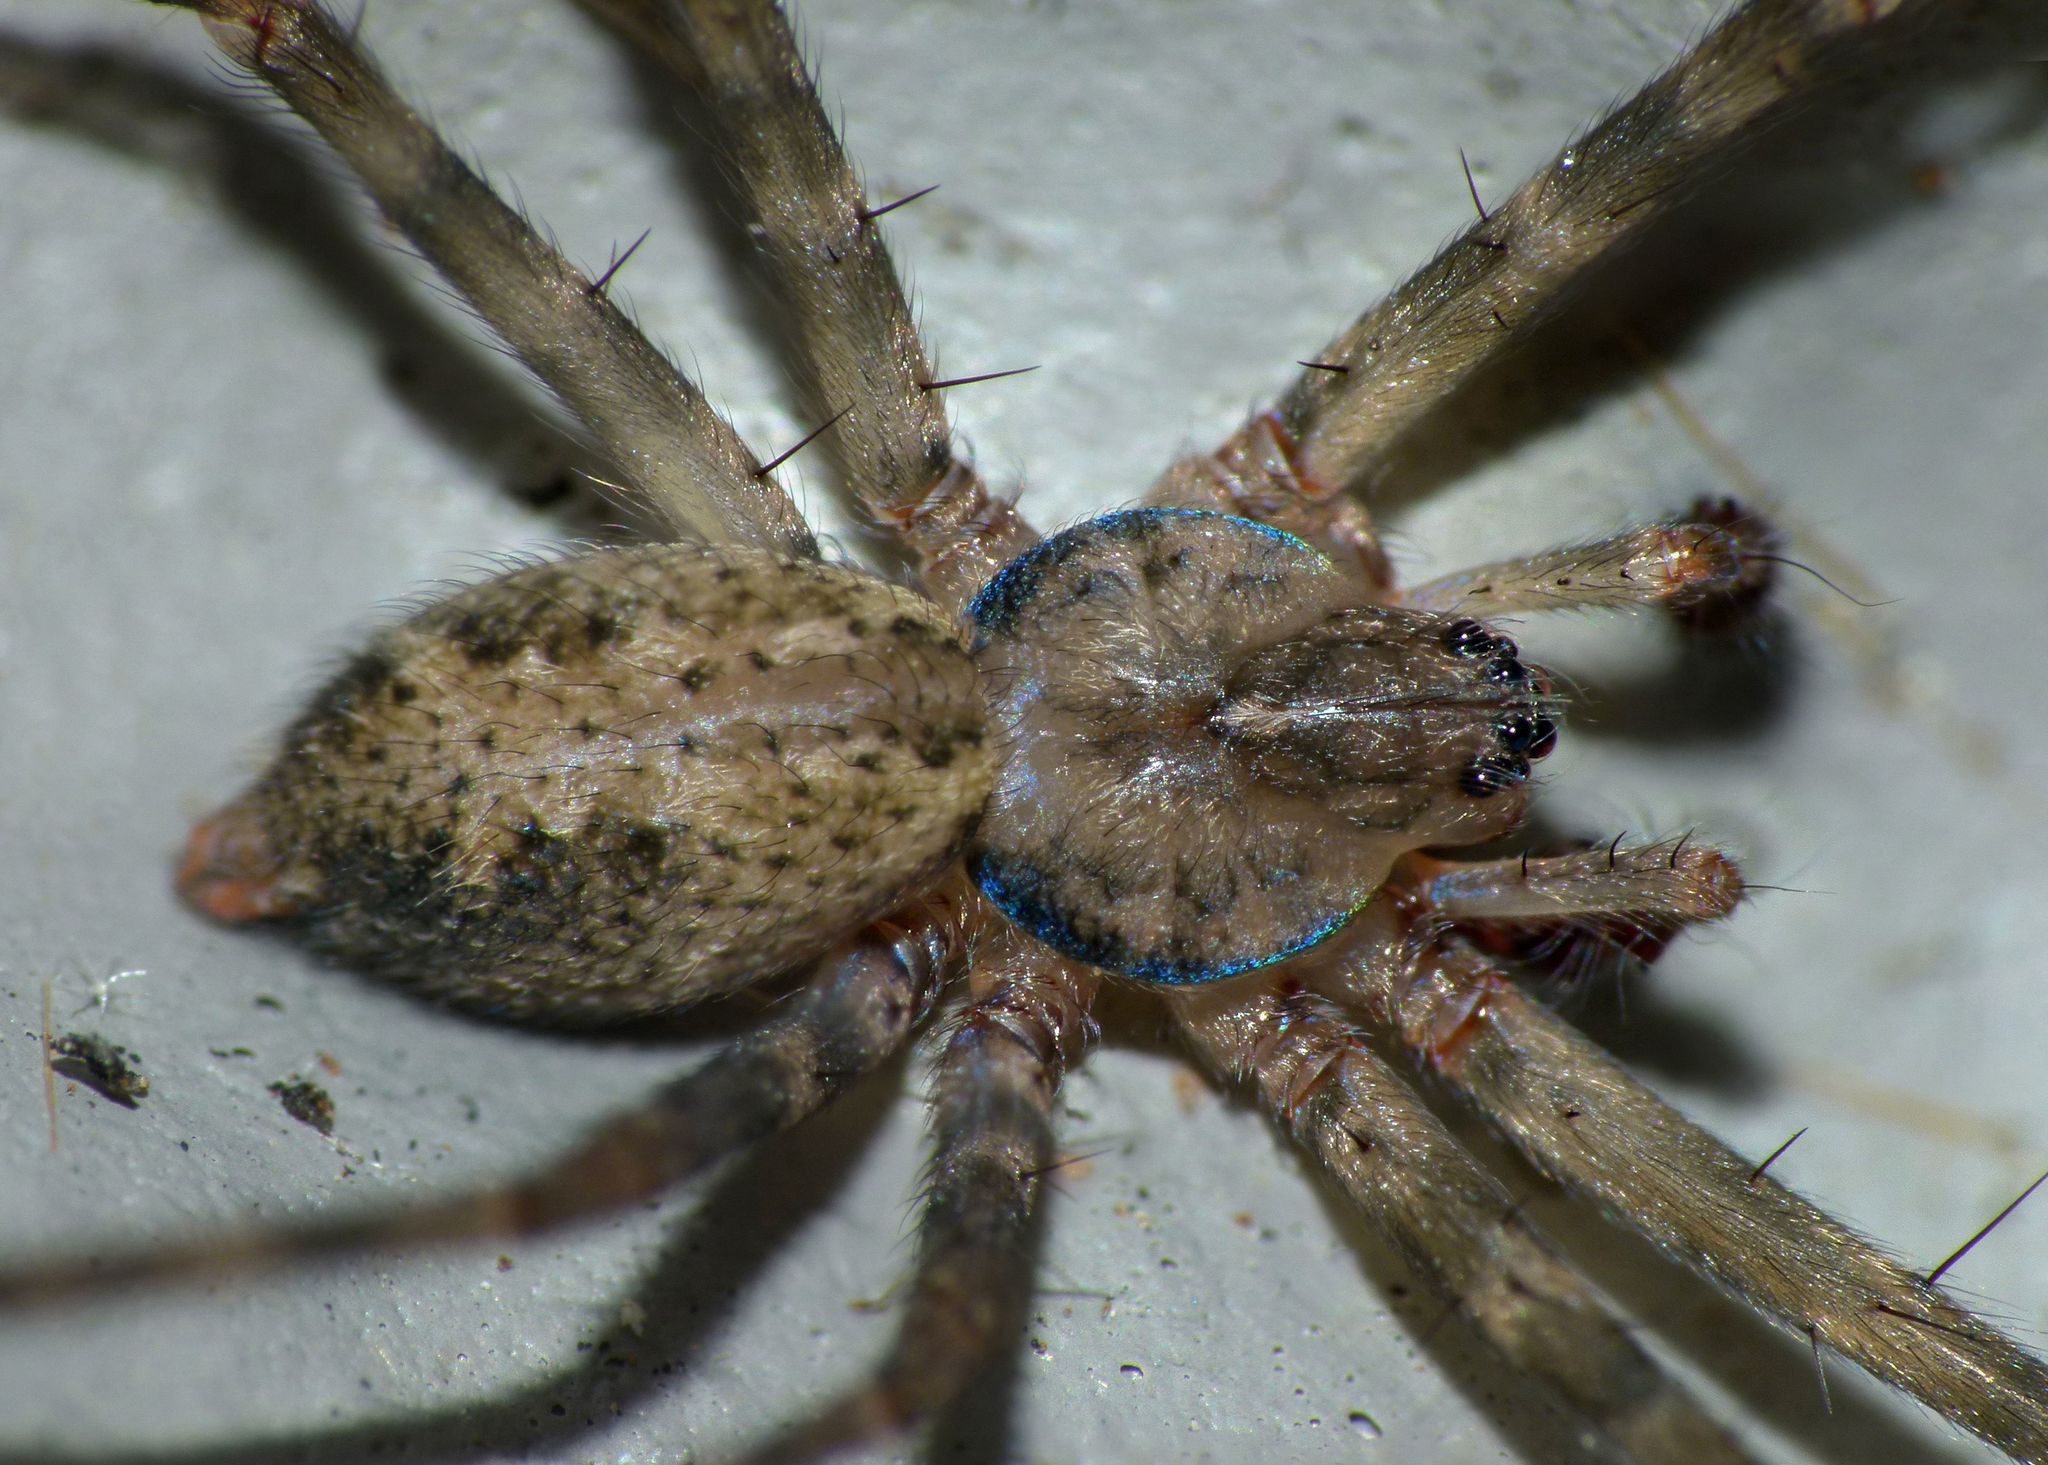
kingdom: Animalia
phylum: Arthropoda
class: Arachnida
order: Araneae
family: Stiphidiidae
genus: Stiphidion
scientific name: Stiphidion facetum
